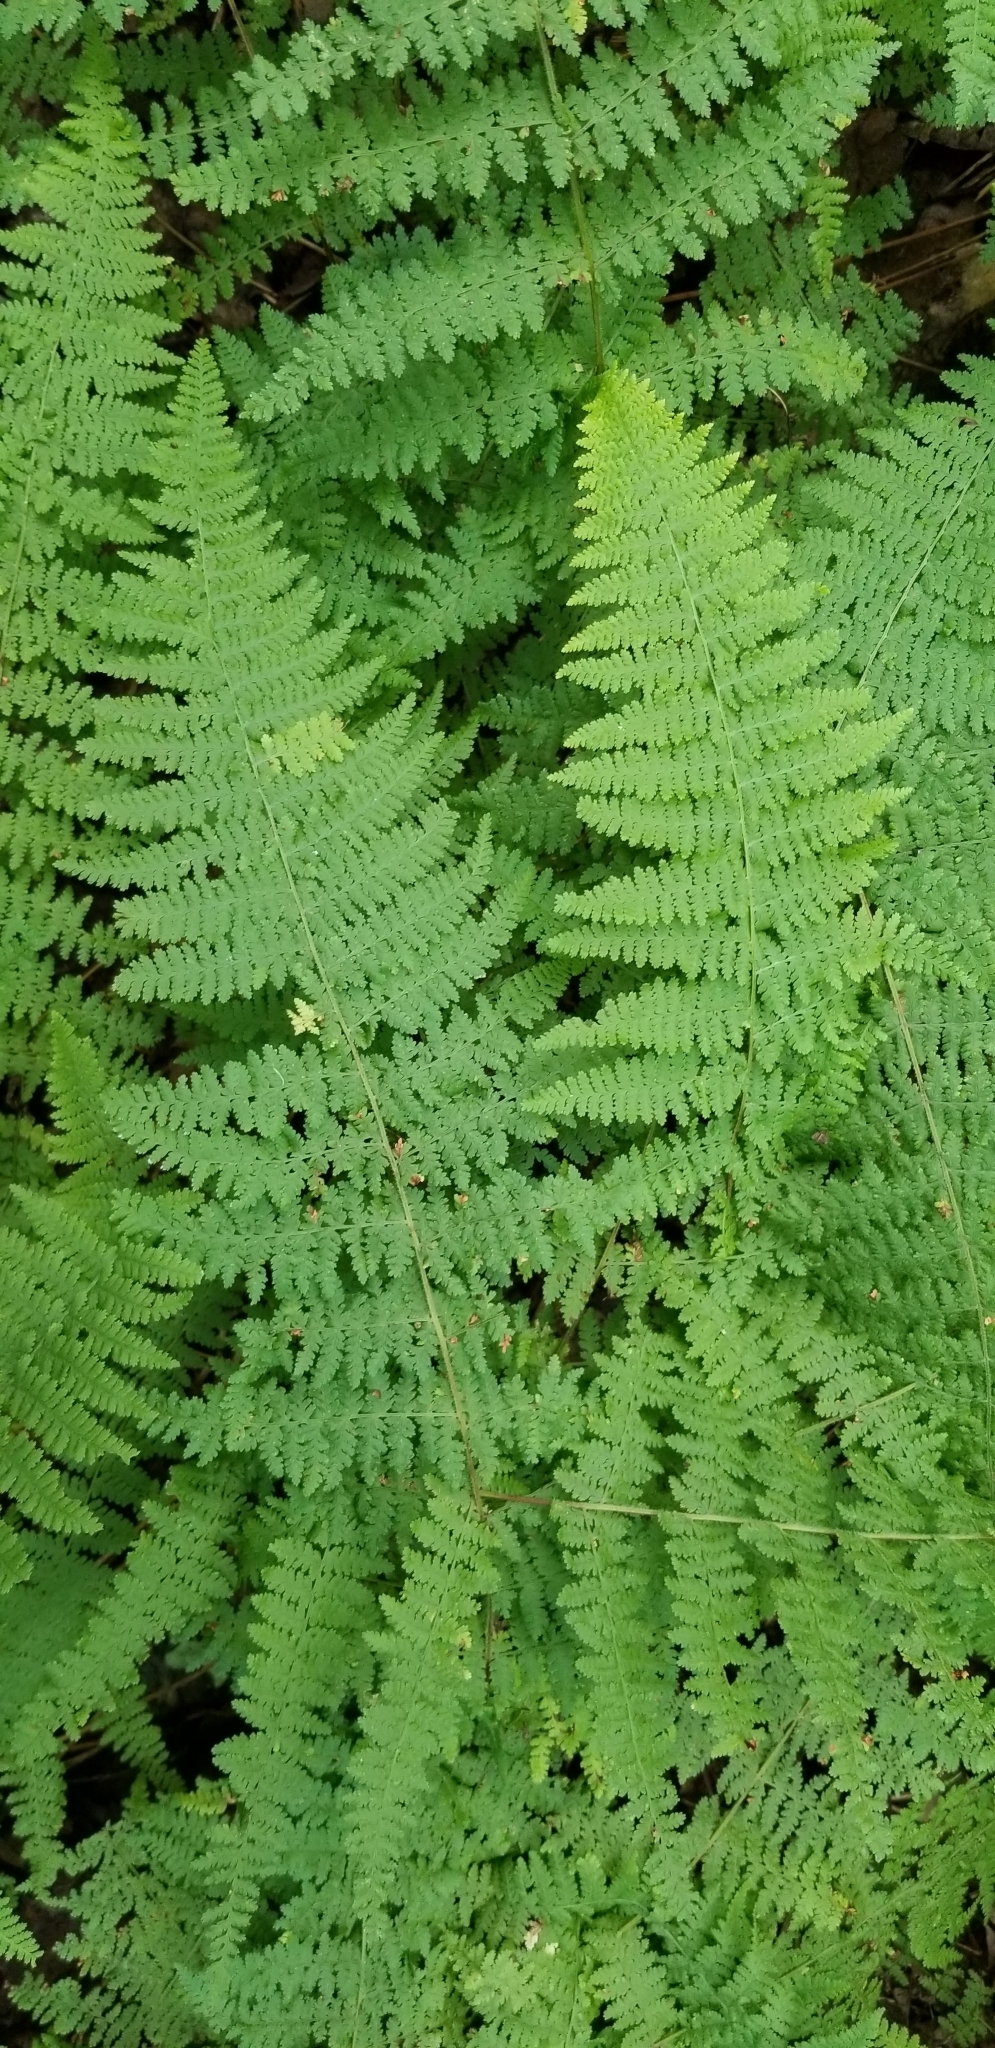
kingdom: Plantae
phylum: Tracheophyta
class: Polypodiopsida
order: Polypodiales
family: Dennstaedtiaceae
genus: Sitobolium
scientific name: Sitobolium punctilobum
